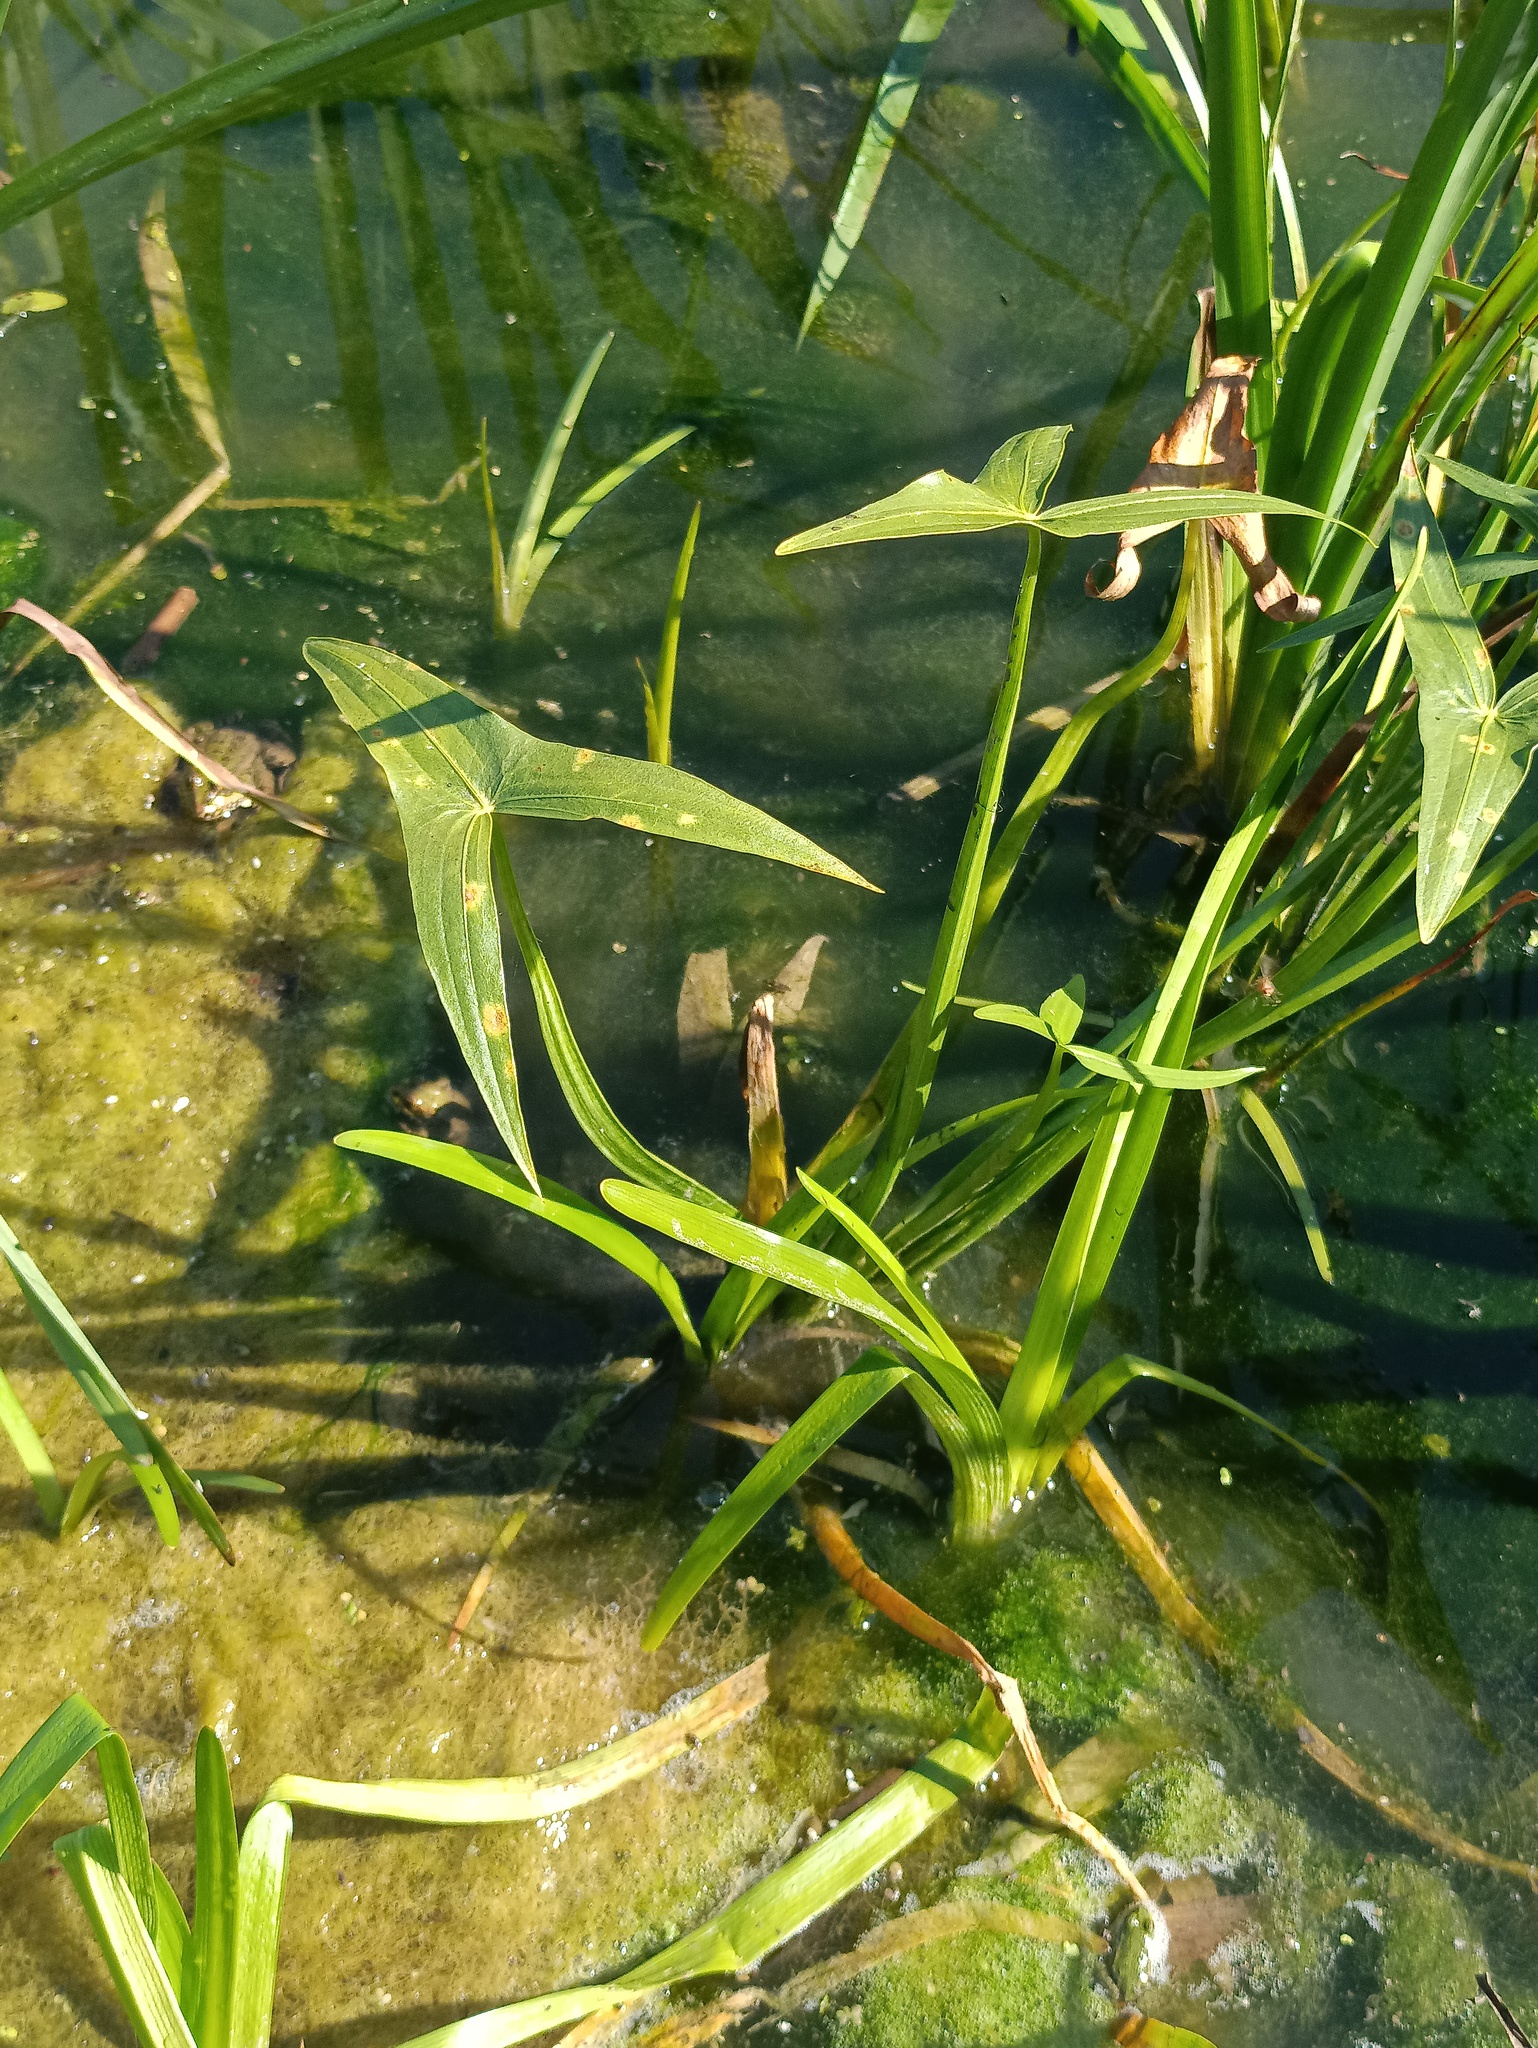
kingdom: Plantae
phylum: Tracheophyta
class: Liliopsida
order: Alismatales
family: Alismataceae
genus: Sagittaria
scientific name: Sagittaria sagittifolia
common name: Arrowhead
